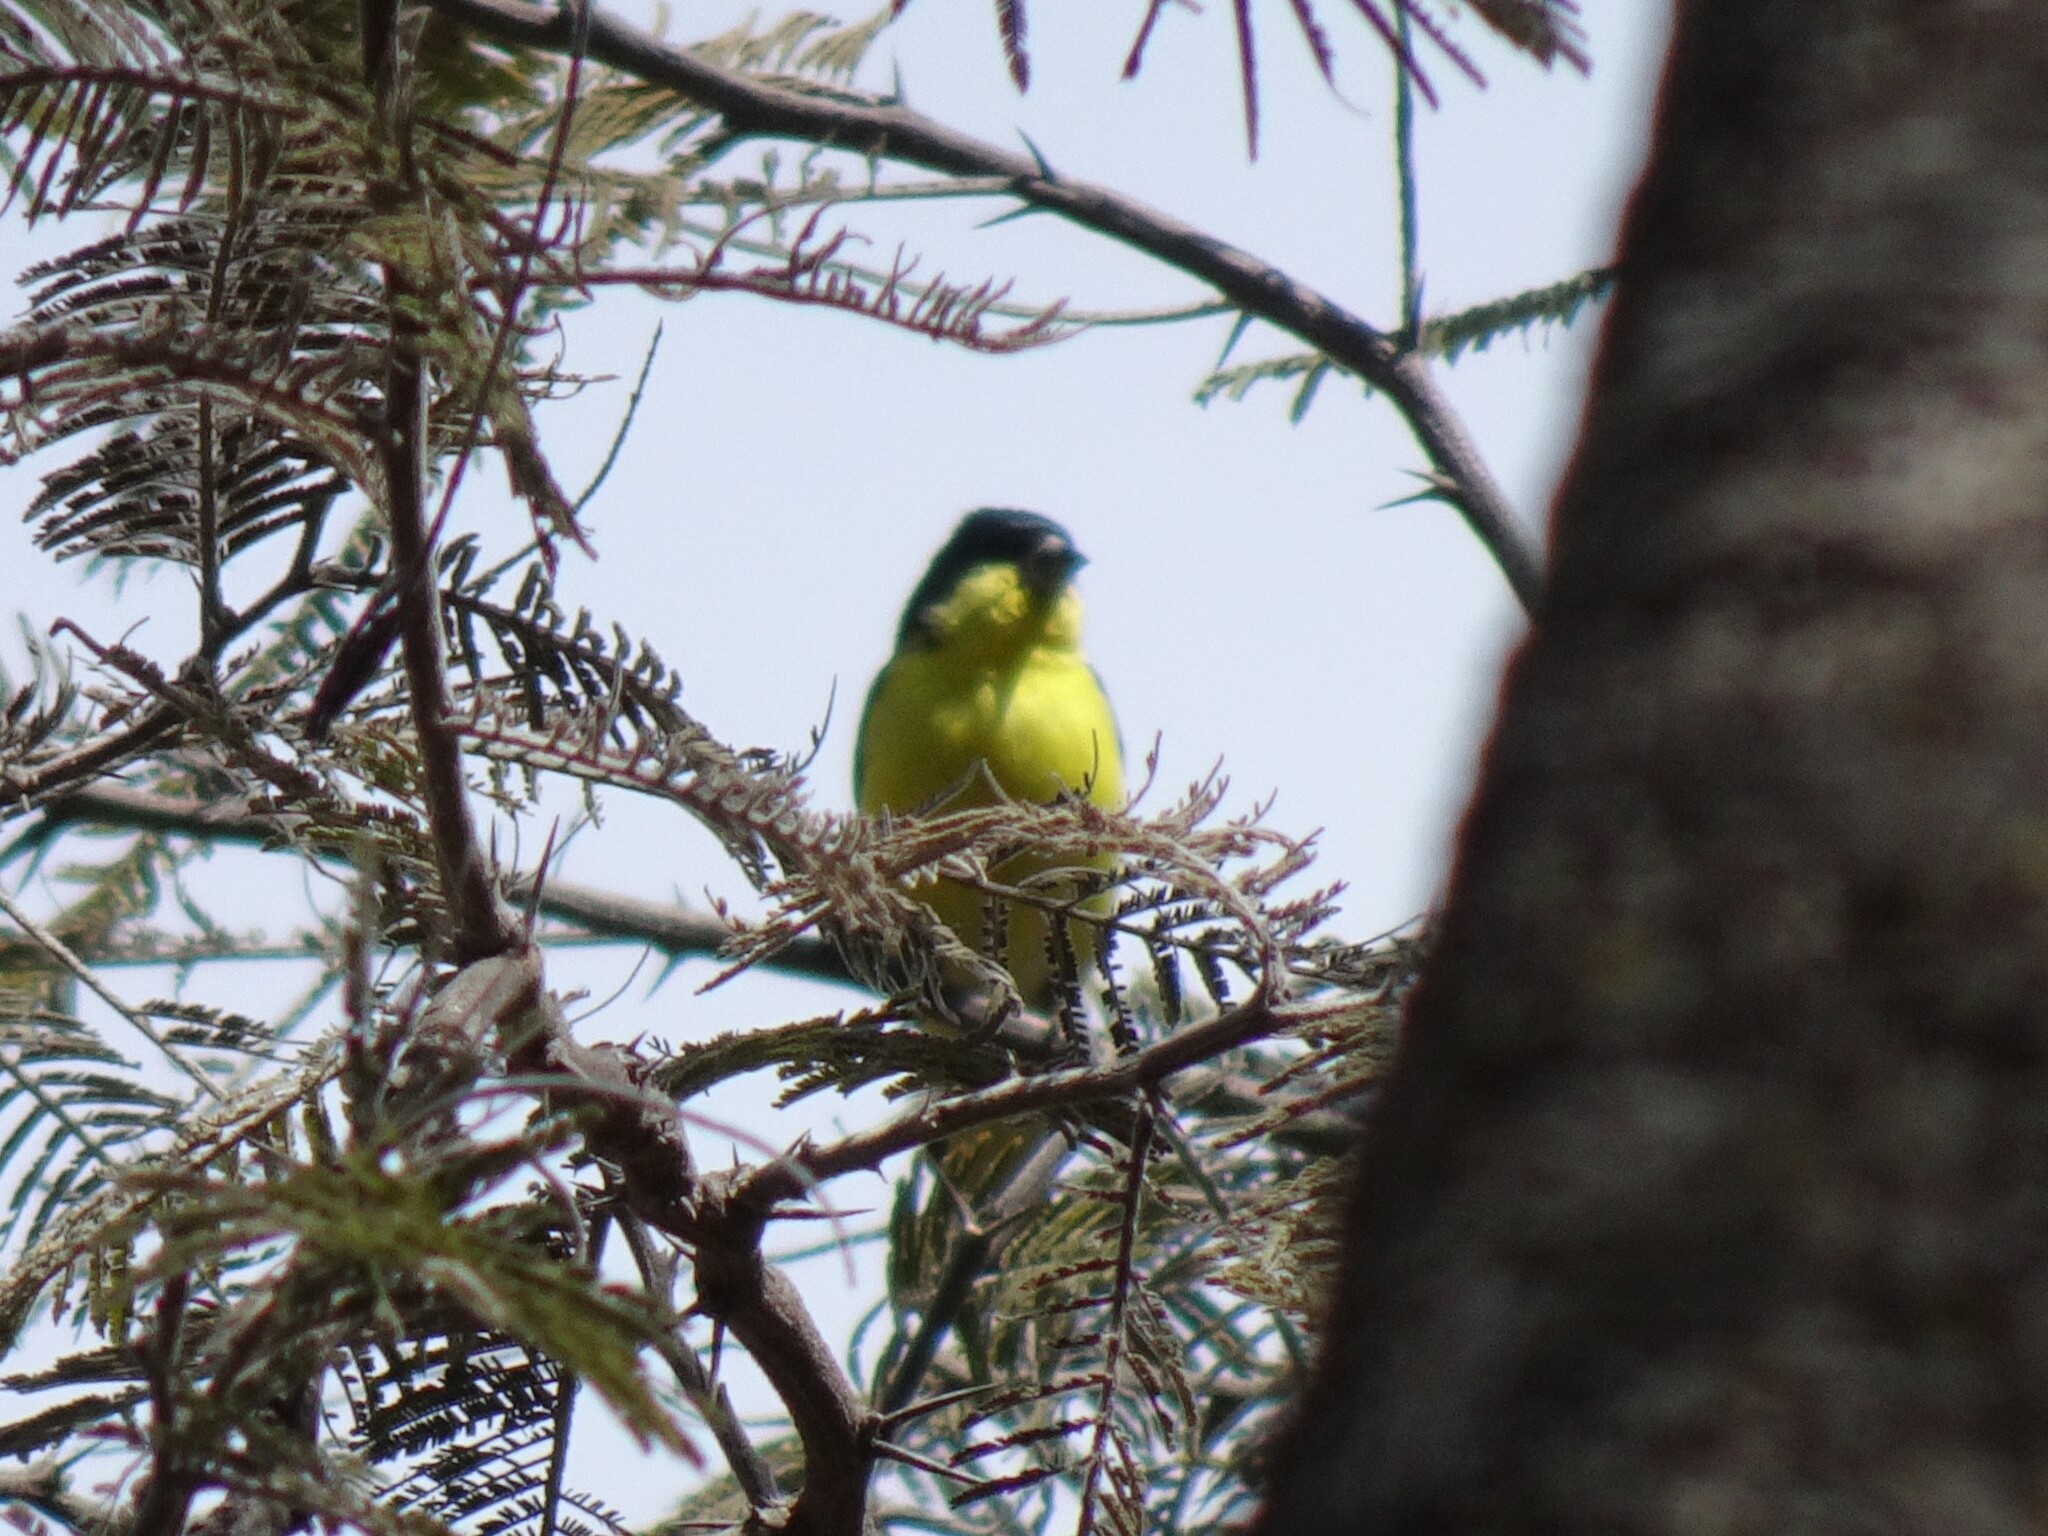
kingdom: Animalia
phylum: Chordata
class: Aves
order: Passeriformes
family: Fringillidae
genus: Spinus
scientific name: Spinus psaltria
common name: Lesser goldfinch
